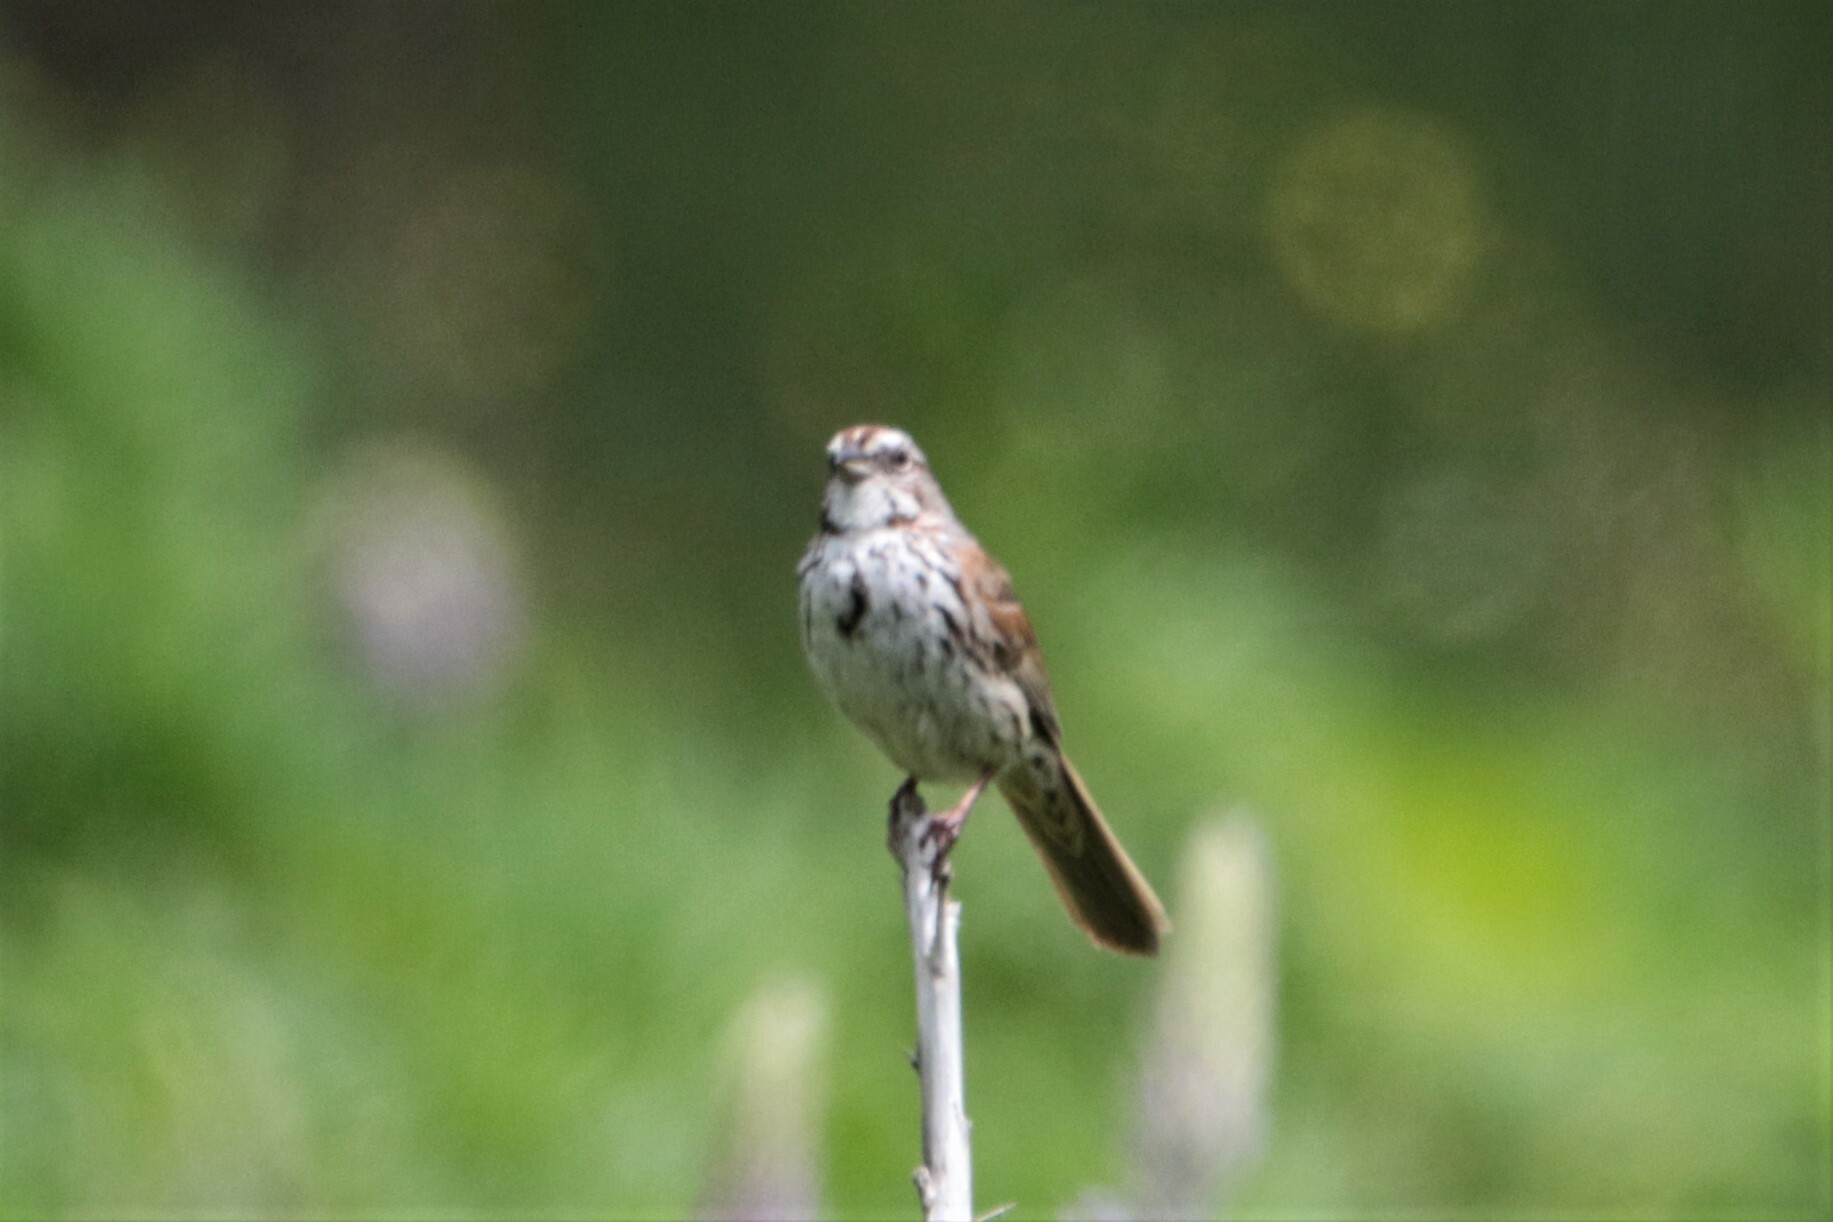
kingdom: Animalia
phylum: Chordata
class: Aves
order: Passeriformes
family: Passerellidae
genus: Melospiza
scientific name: Melospiza melodia
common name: Song sparrow
